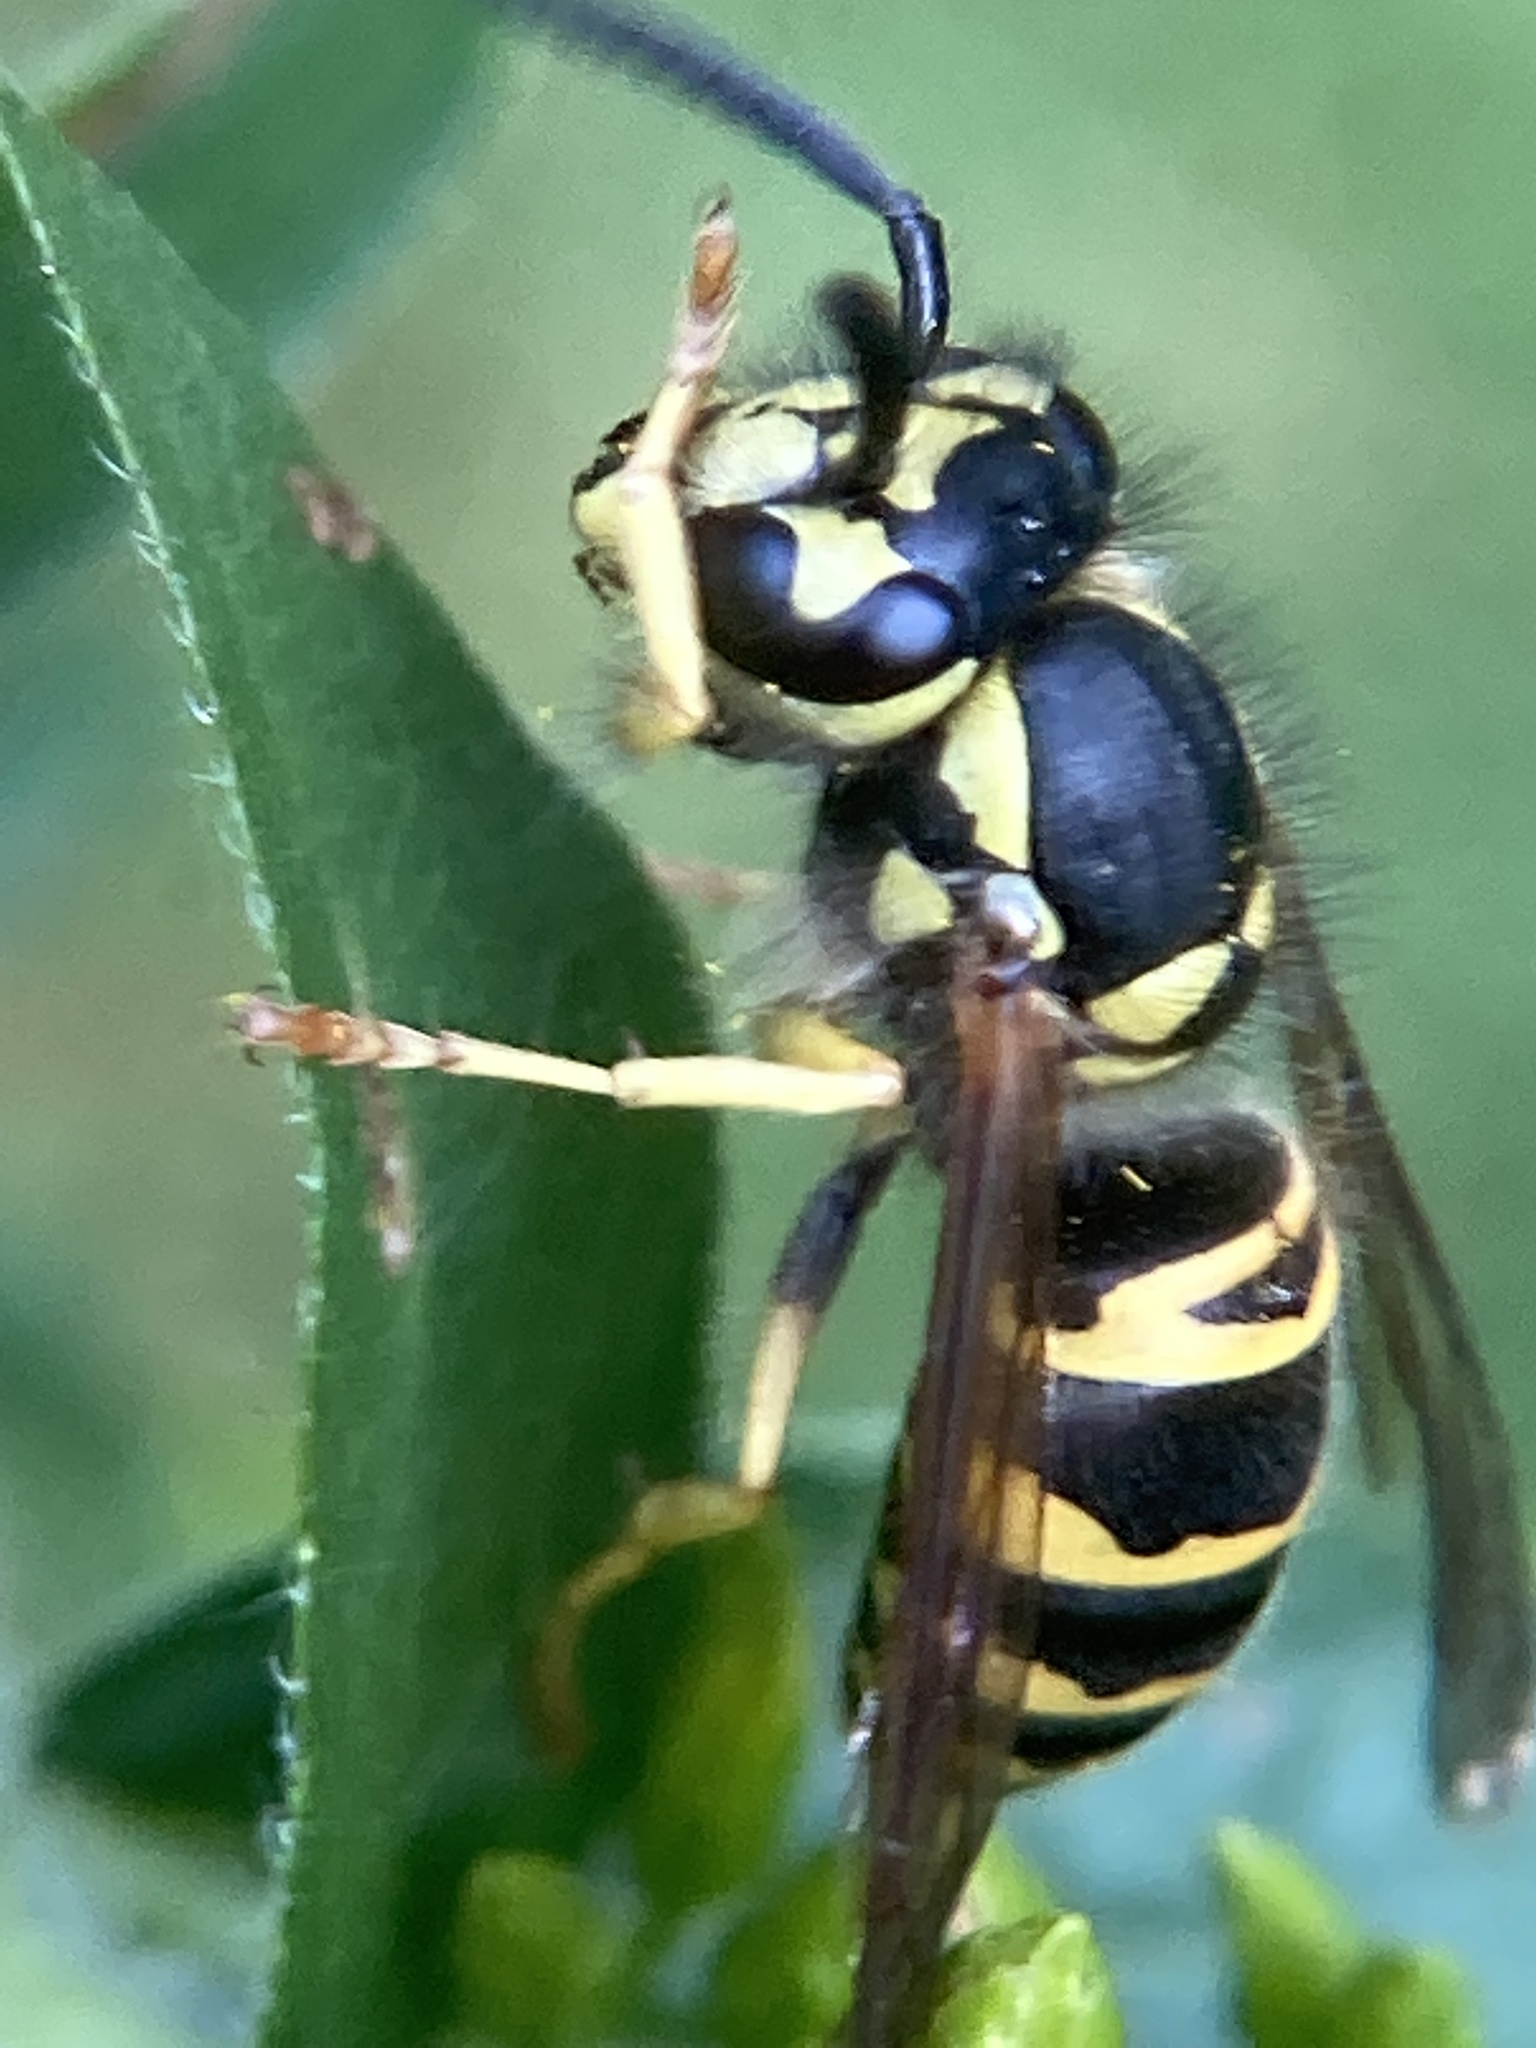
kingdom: Animalia
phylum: Arthropoda
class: Insecta
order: Hymenoptera
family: Vespidae
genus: Vespula
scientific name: Vespula maculifrons
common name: Eastern yellowjacket
